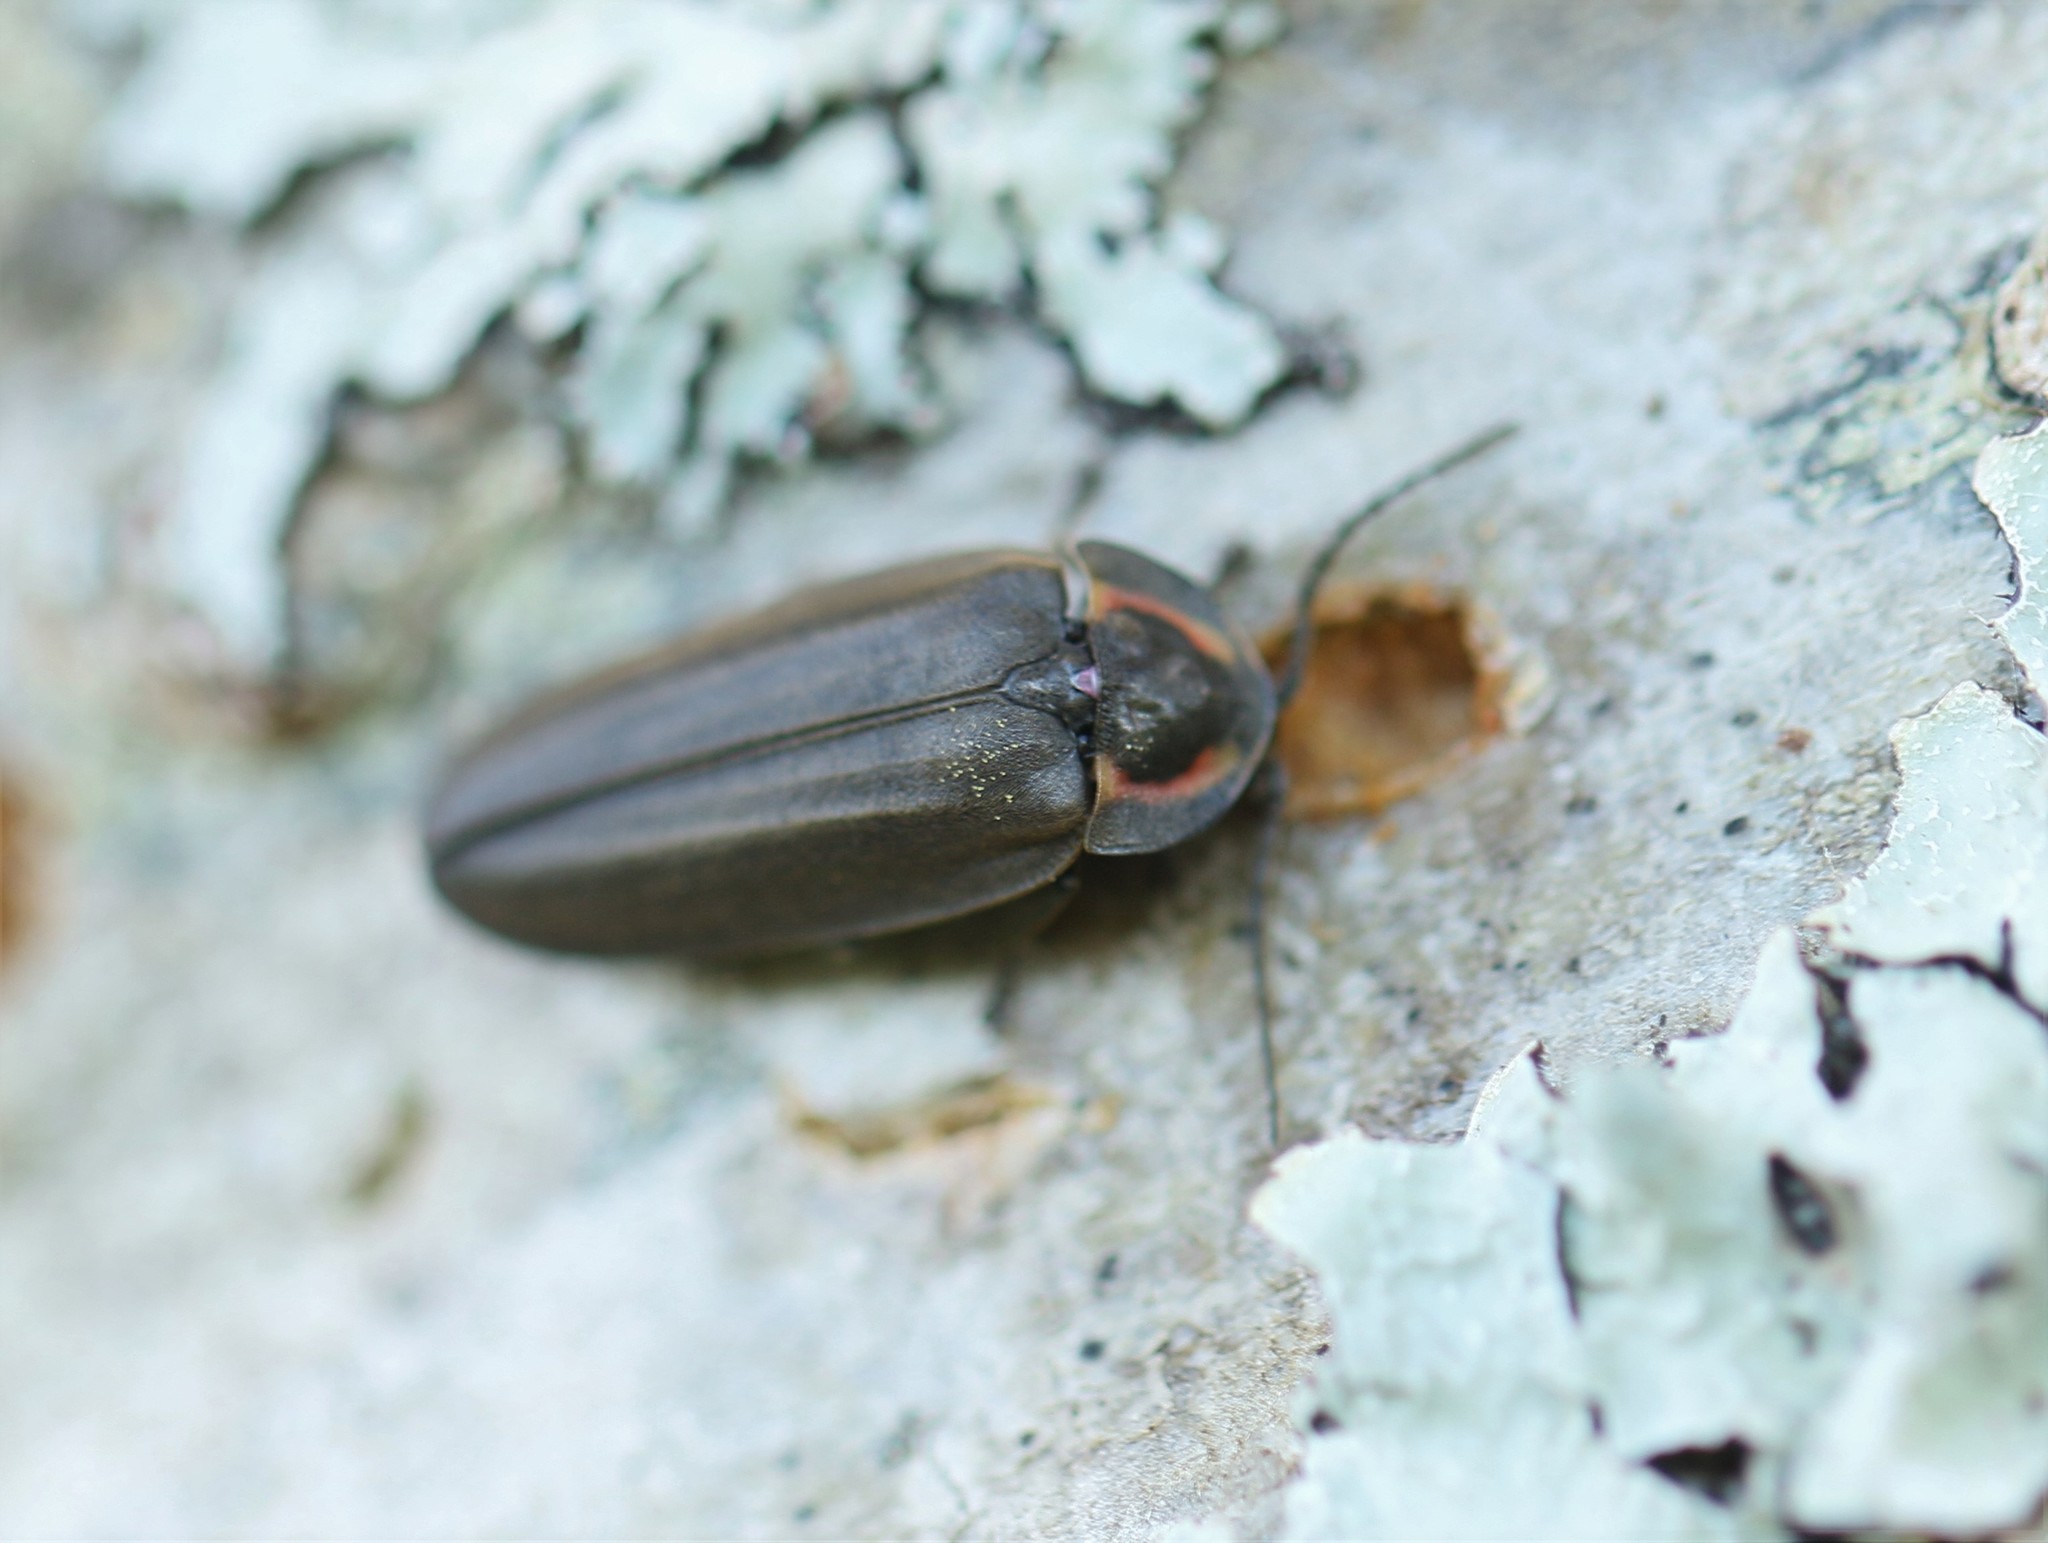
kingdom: Animalia
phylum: Arthropoda
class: Insecta
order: Coleoptera
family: Lampyridae
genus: Photinus
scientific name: Photinus corrusca
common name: Winter firefly
